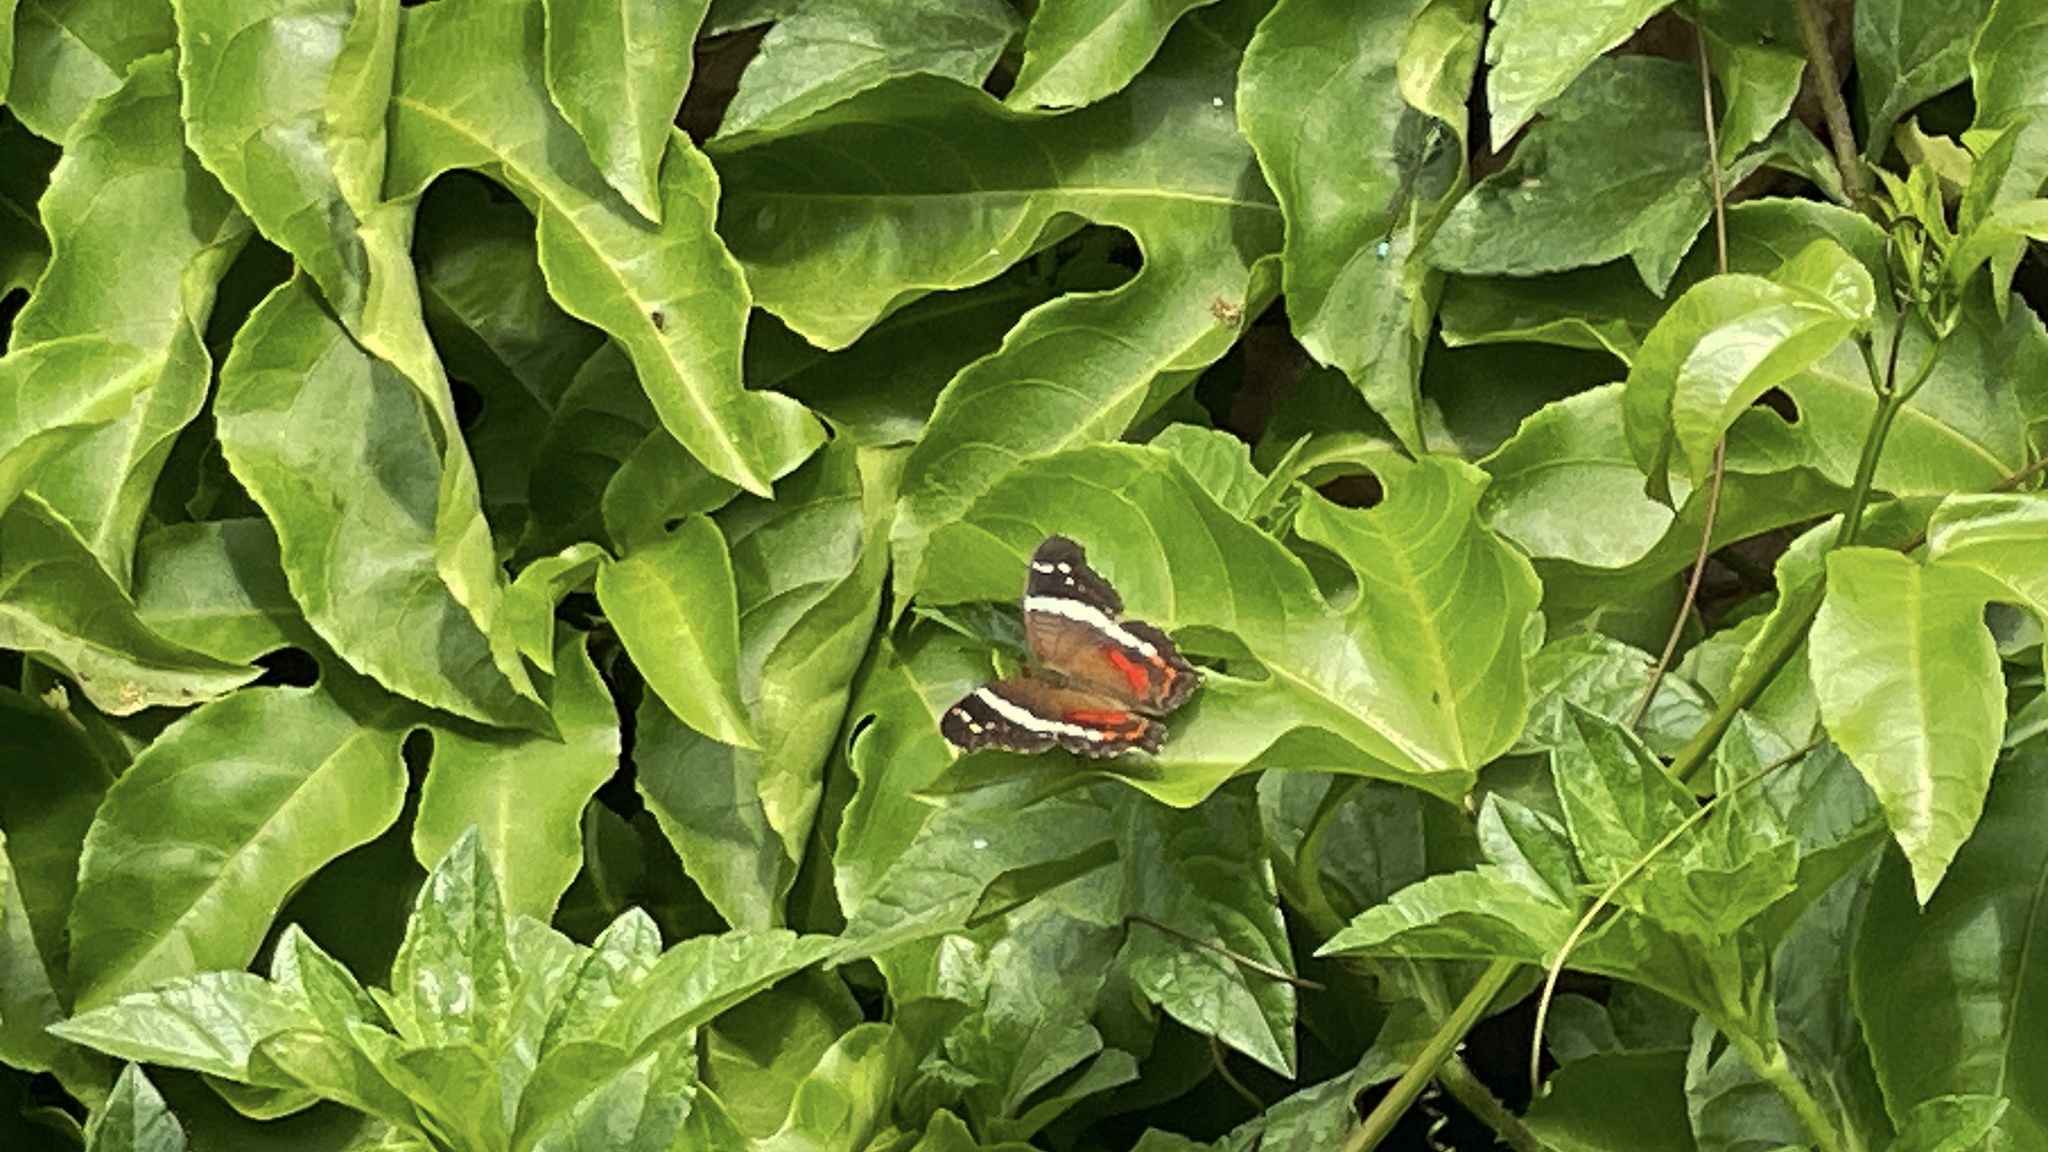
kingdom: Animalia
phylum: Arthropoda
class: Insecta
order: Lepidoptera
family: Nymphalidae
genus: Anartia
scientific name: Anartia fatima
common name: Banded peacock
